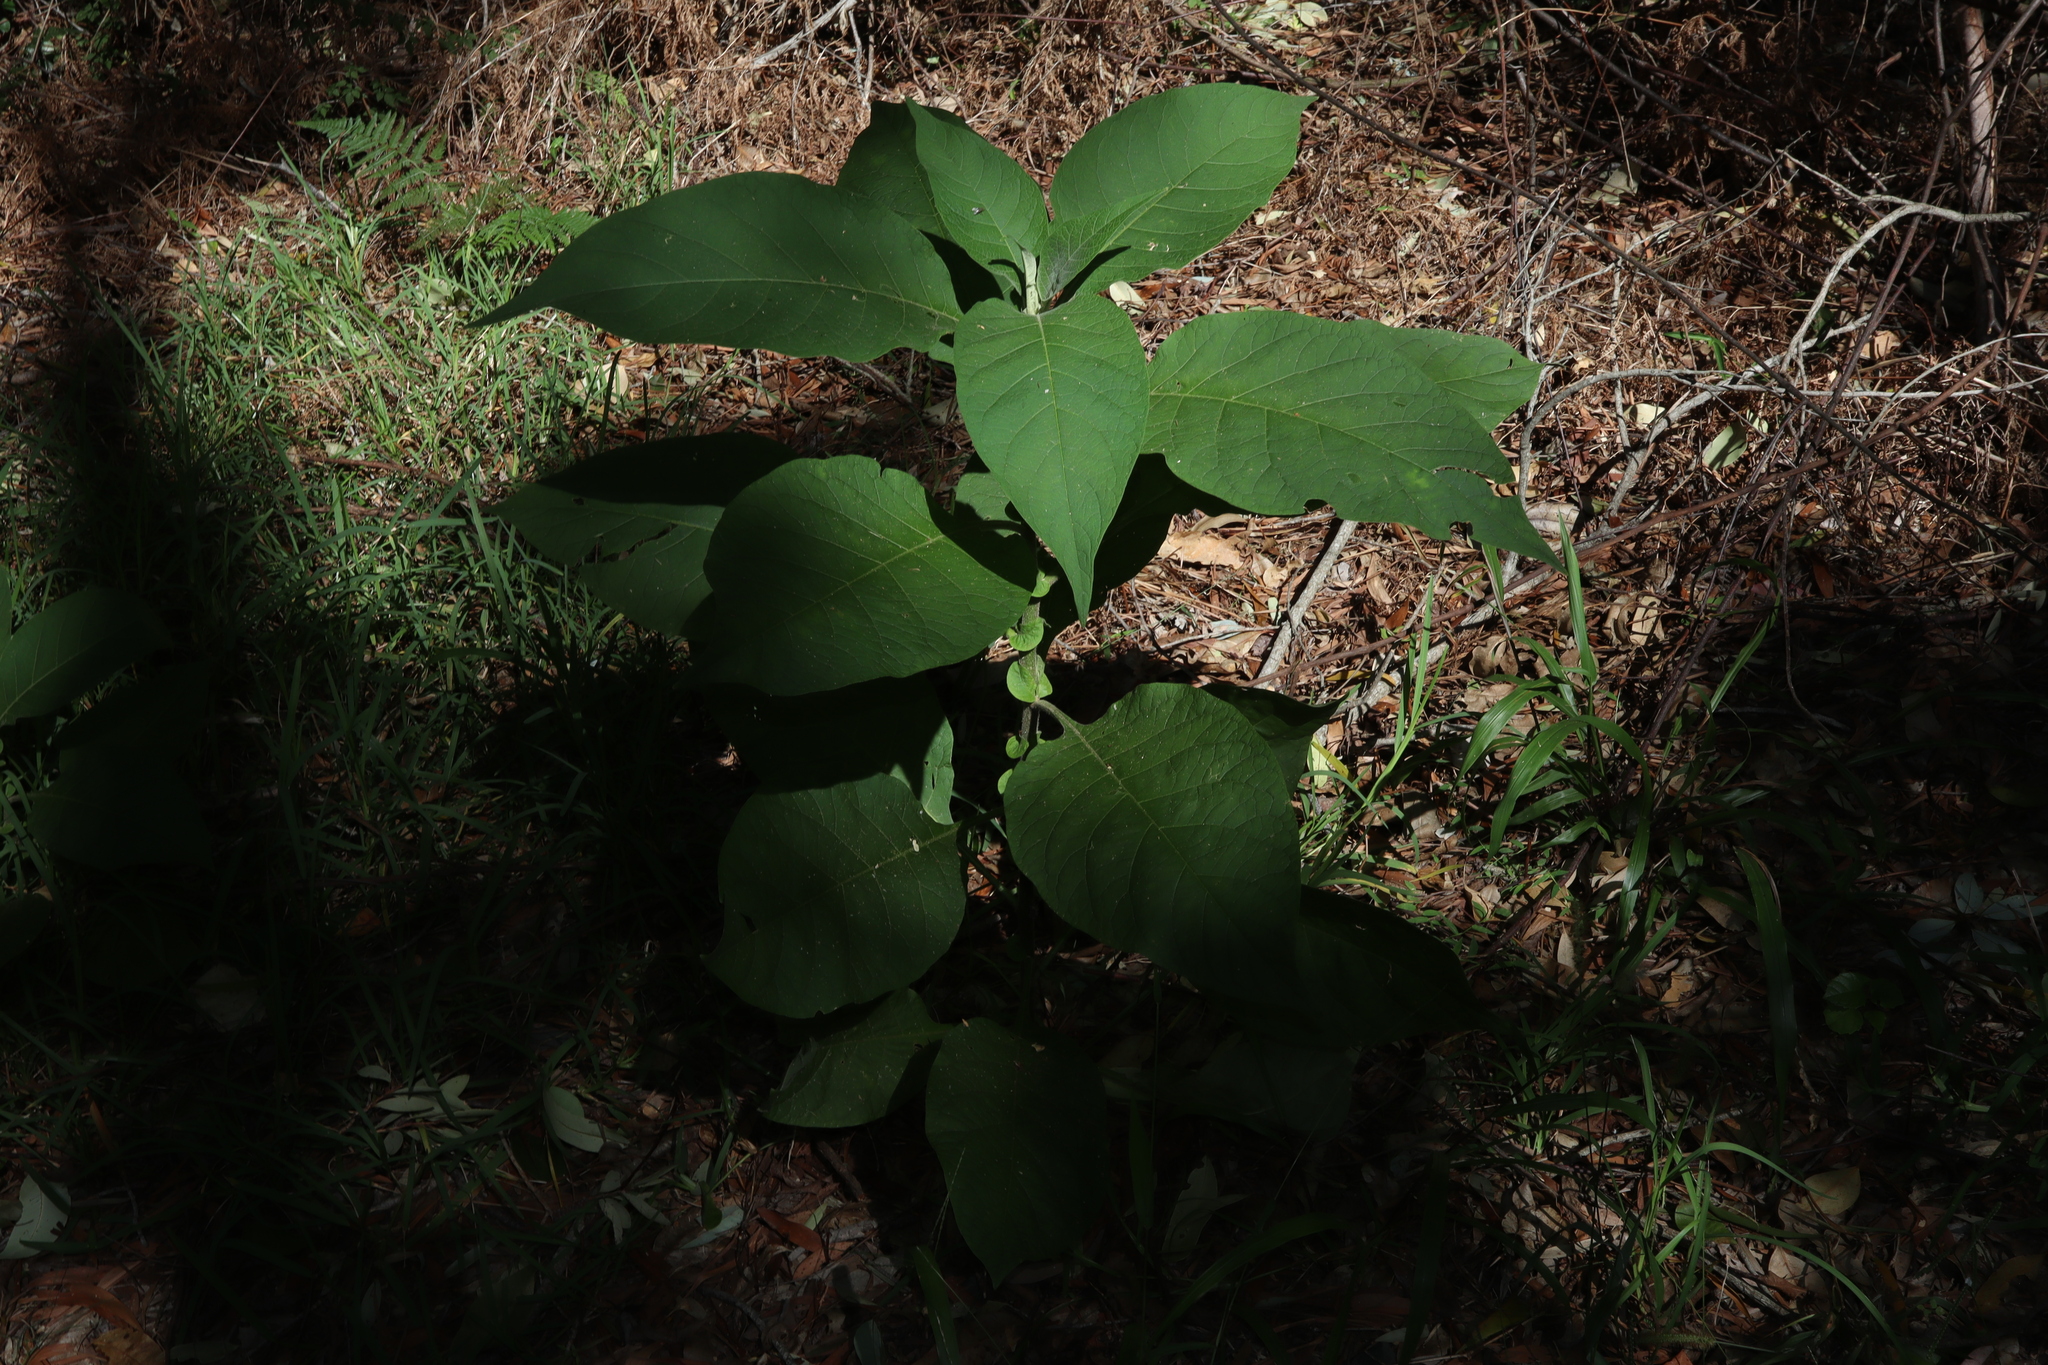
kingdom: Plantae
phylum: Tracheophyta
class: Magnoliopsida
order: Solanales
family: Solanaceae
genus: Solanum
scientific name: Solanum mauritianum
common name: Earleaf nightshade
